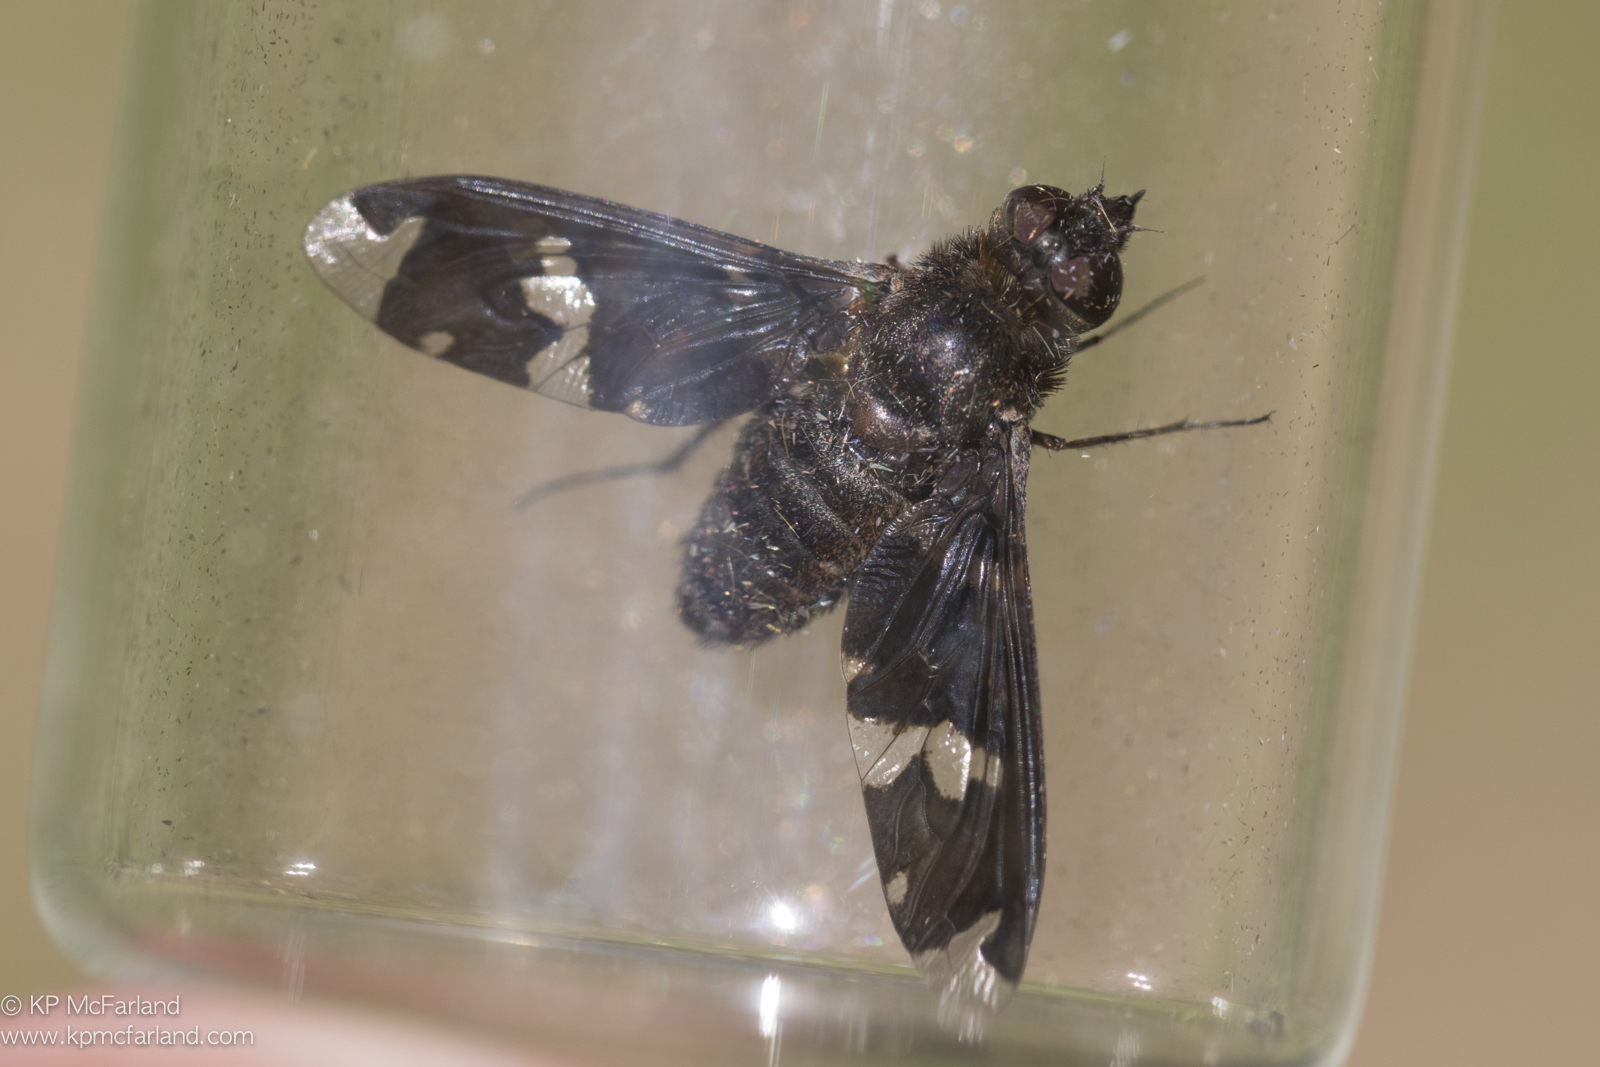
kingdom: Animalia
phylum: Arthropoda
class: Insecta
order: Diptera
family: Bombyliidae
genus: Exoprosopa
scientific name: Exoprosopa decora
